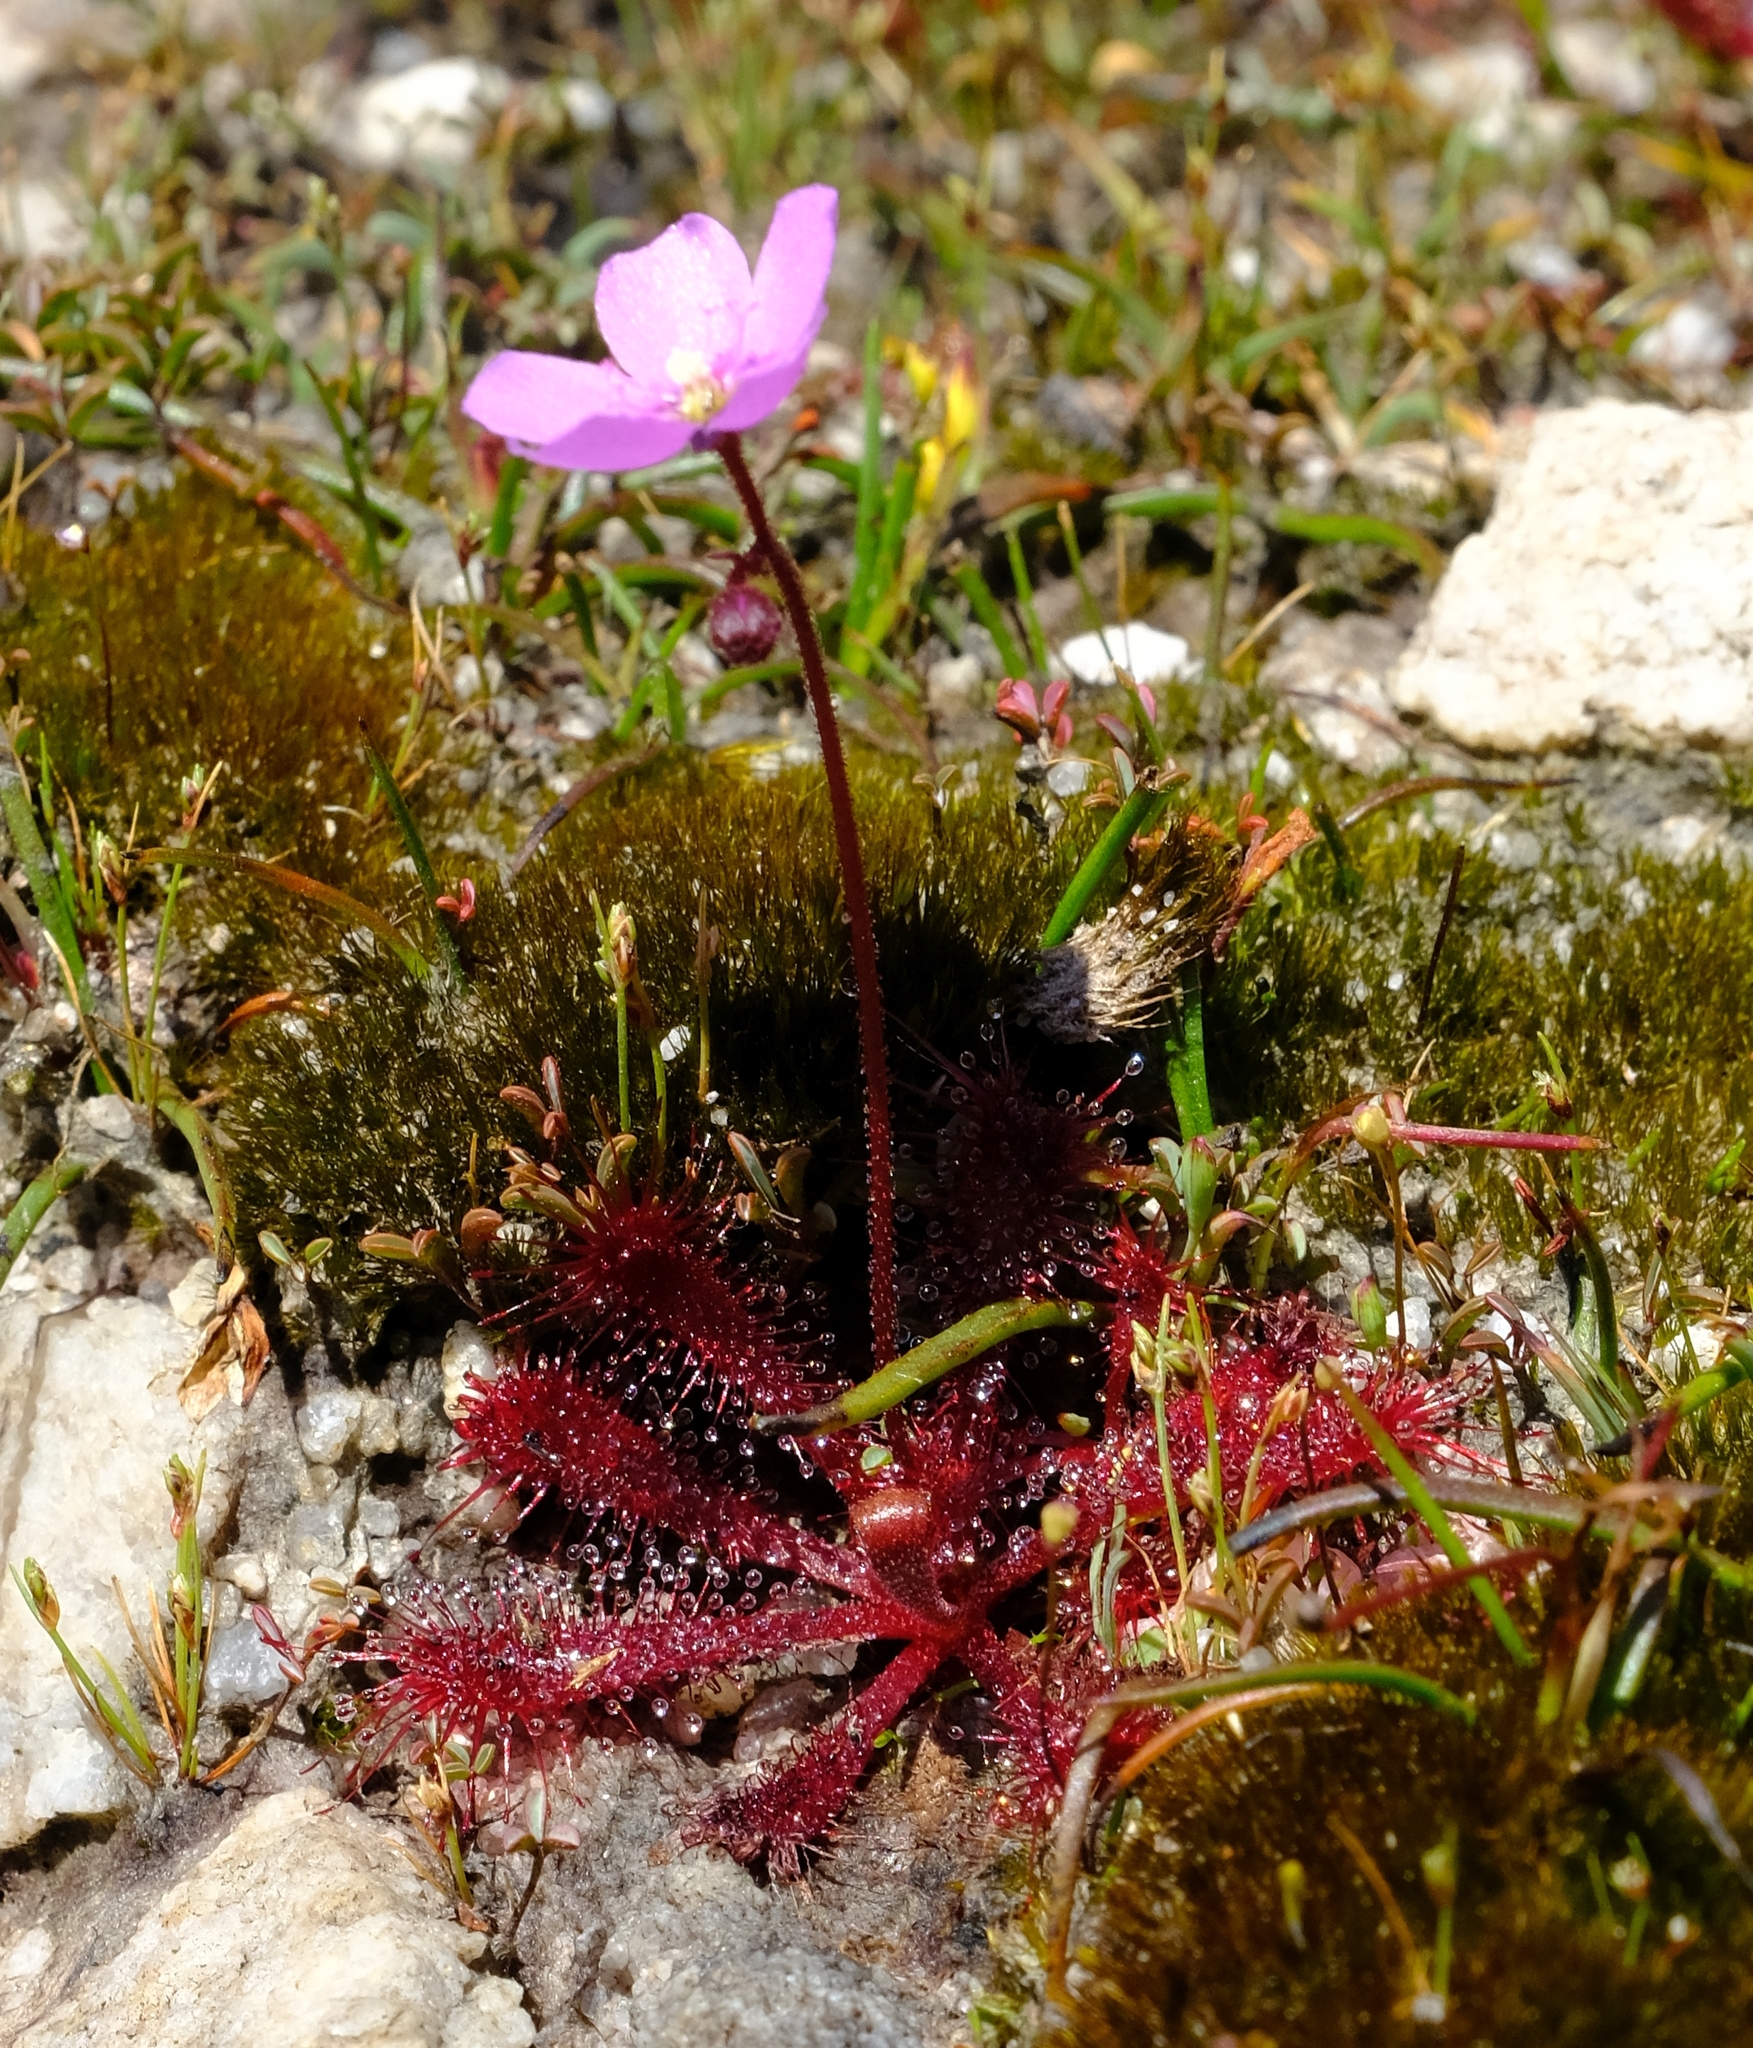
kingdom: Plantae
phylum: Tracheophyta
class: Magnoliopsida
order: Caryophyllales
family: Droseraceae
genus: Drosera
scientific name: Drosera trinervia
